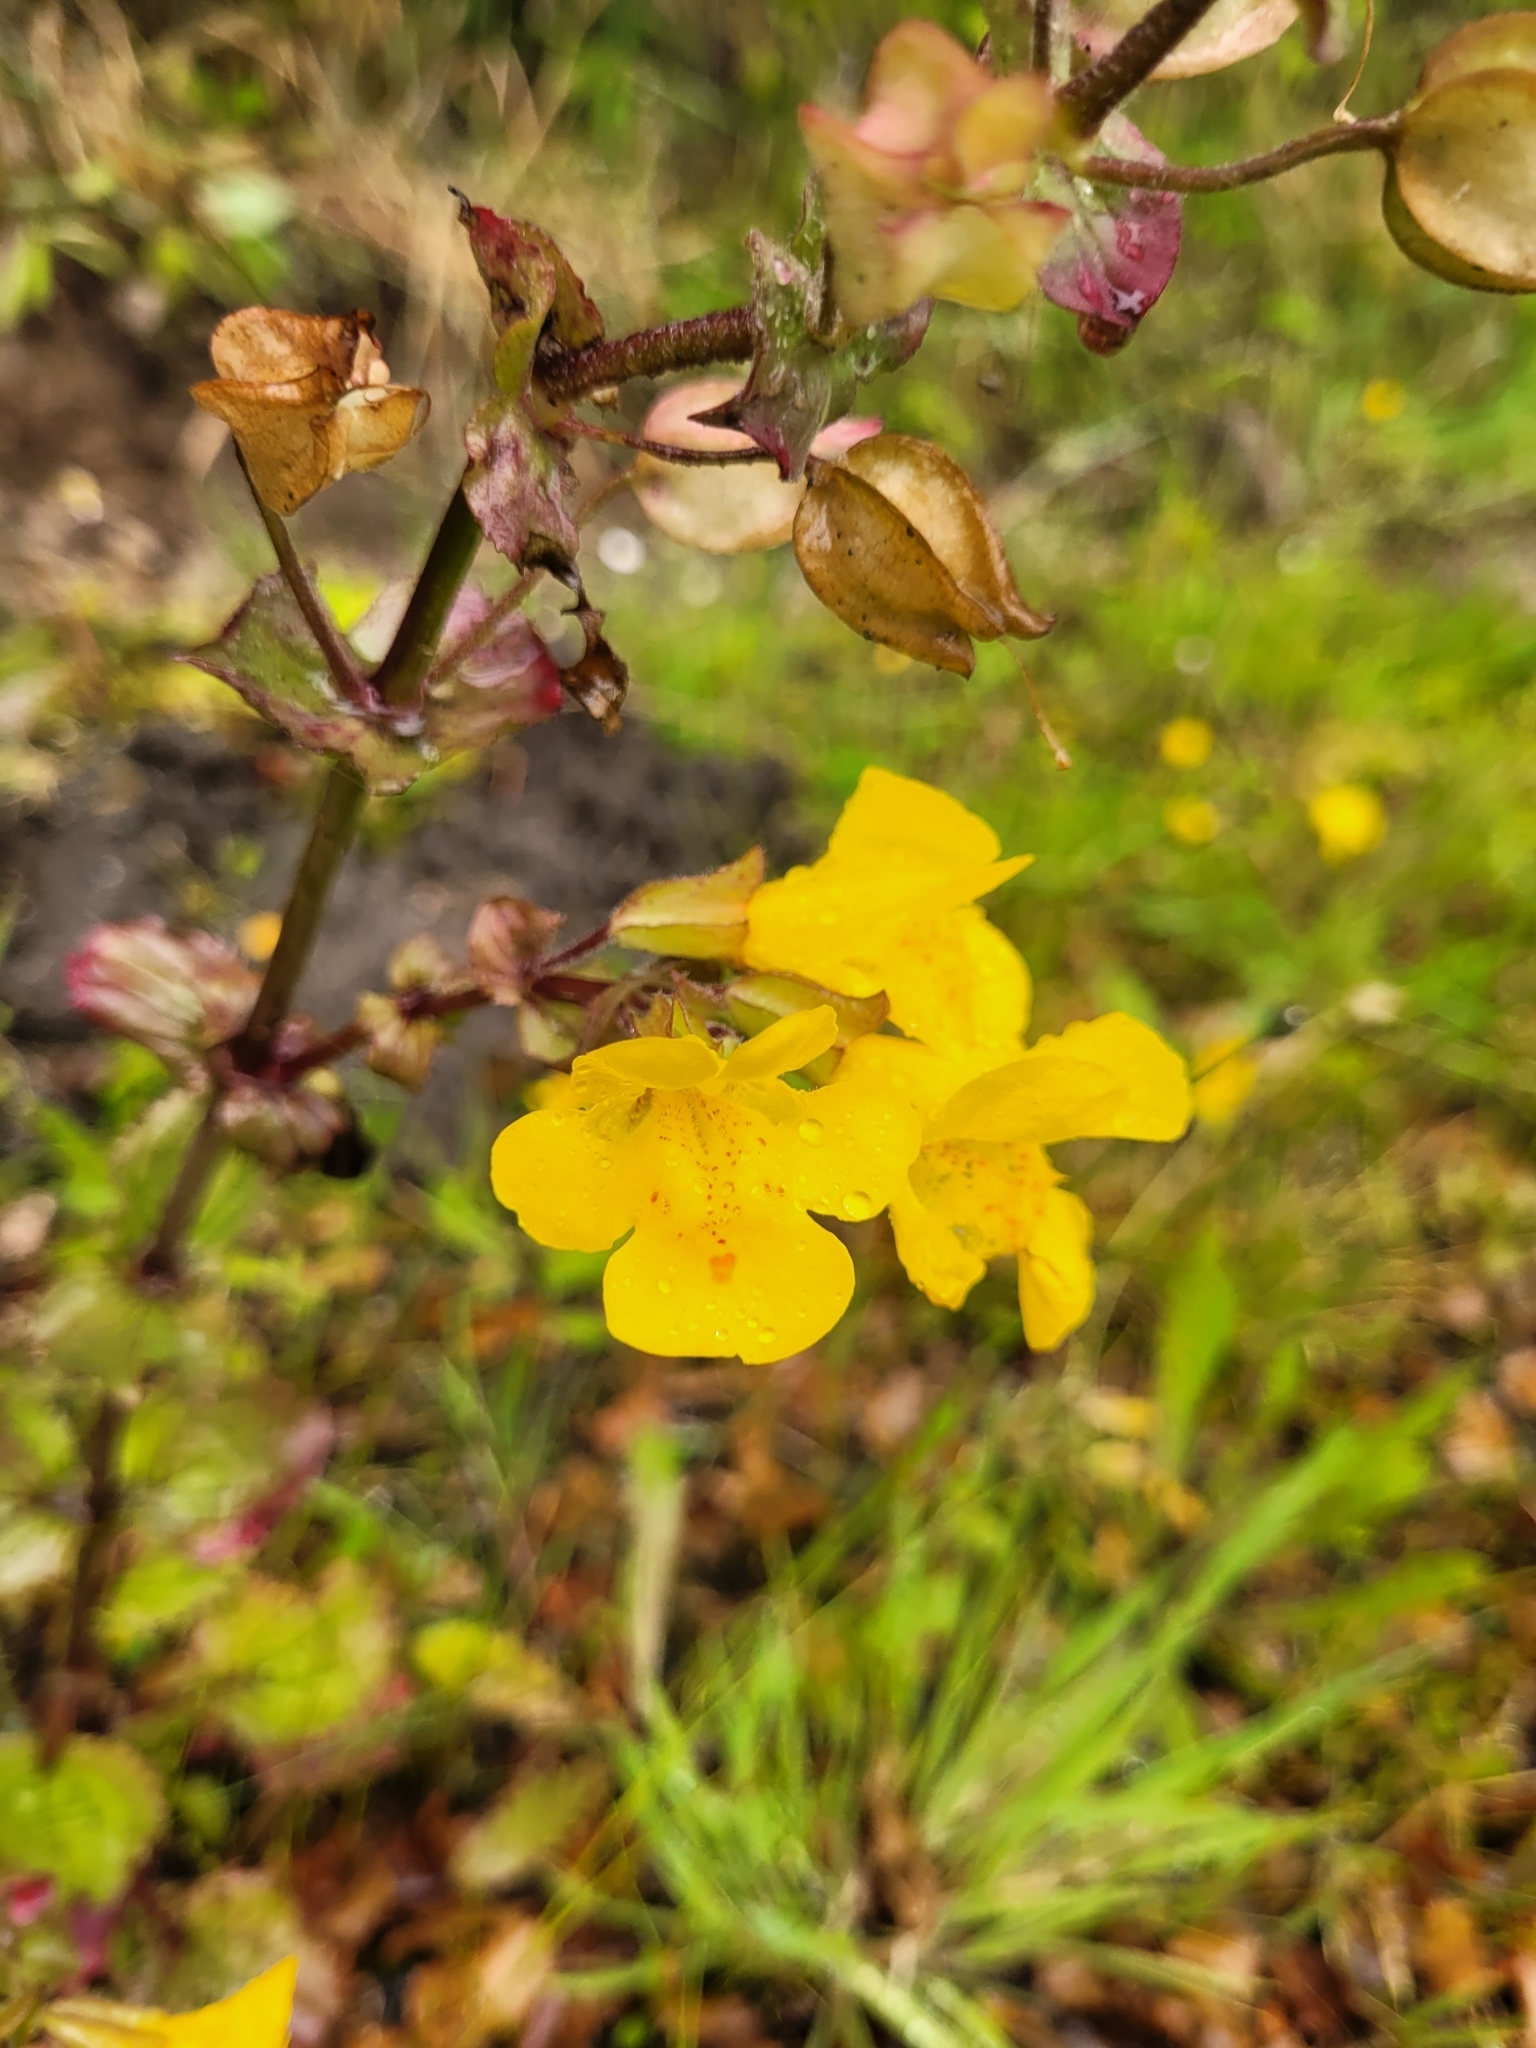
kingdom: Plantae
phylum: Tracheophyta
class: Magnoliopsida
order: Lamiales
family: Phrymaceae
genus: Erythranthe
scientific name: Erythranthe guttata
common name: Monkeyflower
